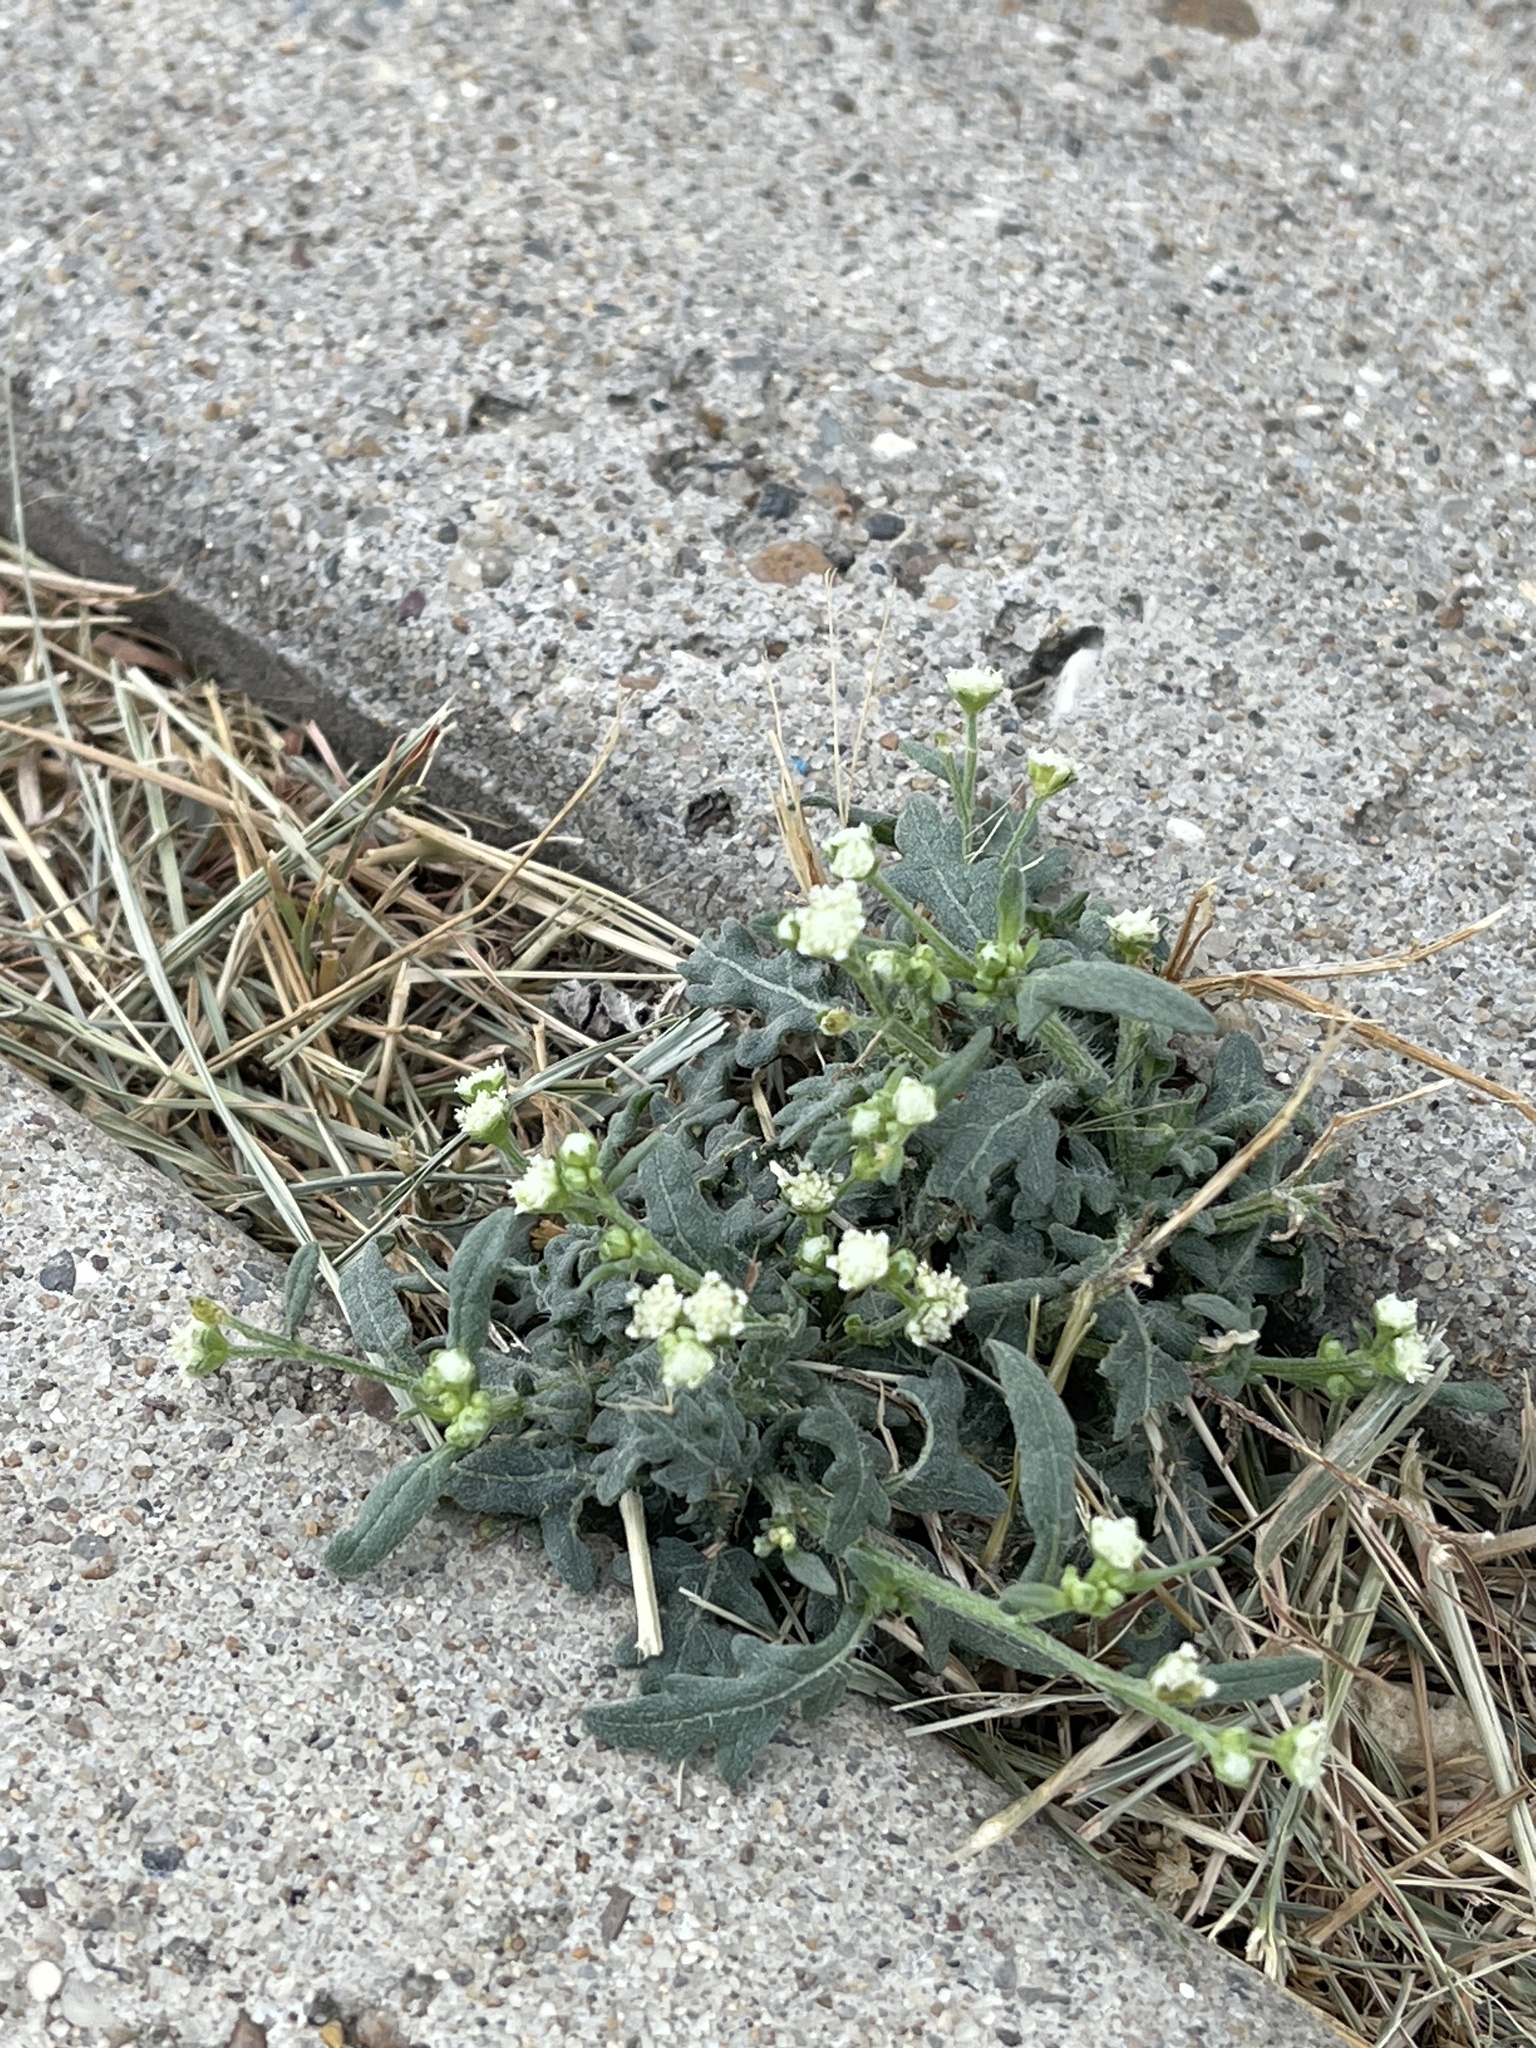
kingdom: Plantae
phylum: Tracheophyta
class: Magnoliopsida
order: Asterales
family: Asteraceae
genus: Parthenium
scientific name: Parthenium hysterophorus
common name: Santa maria feverfew
